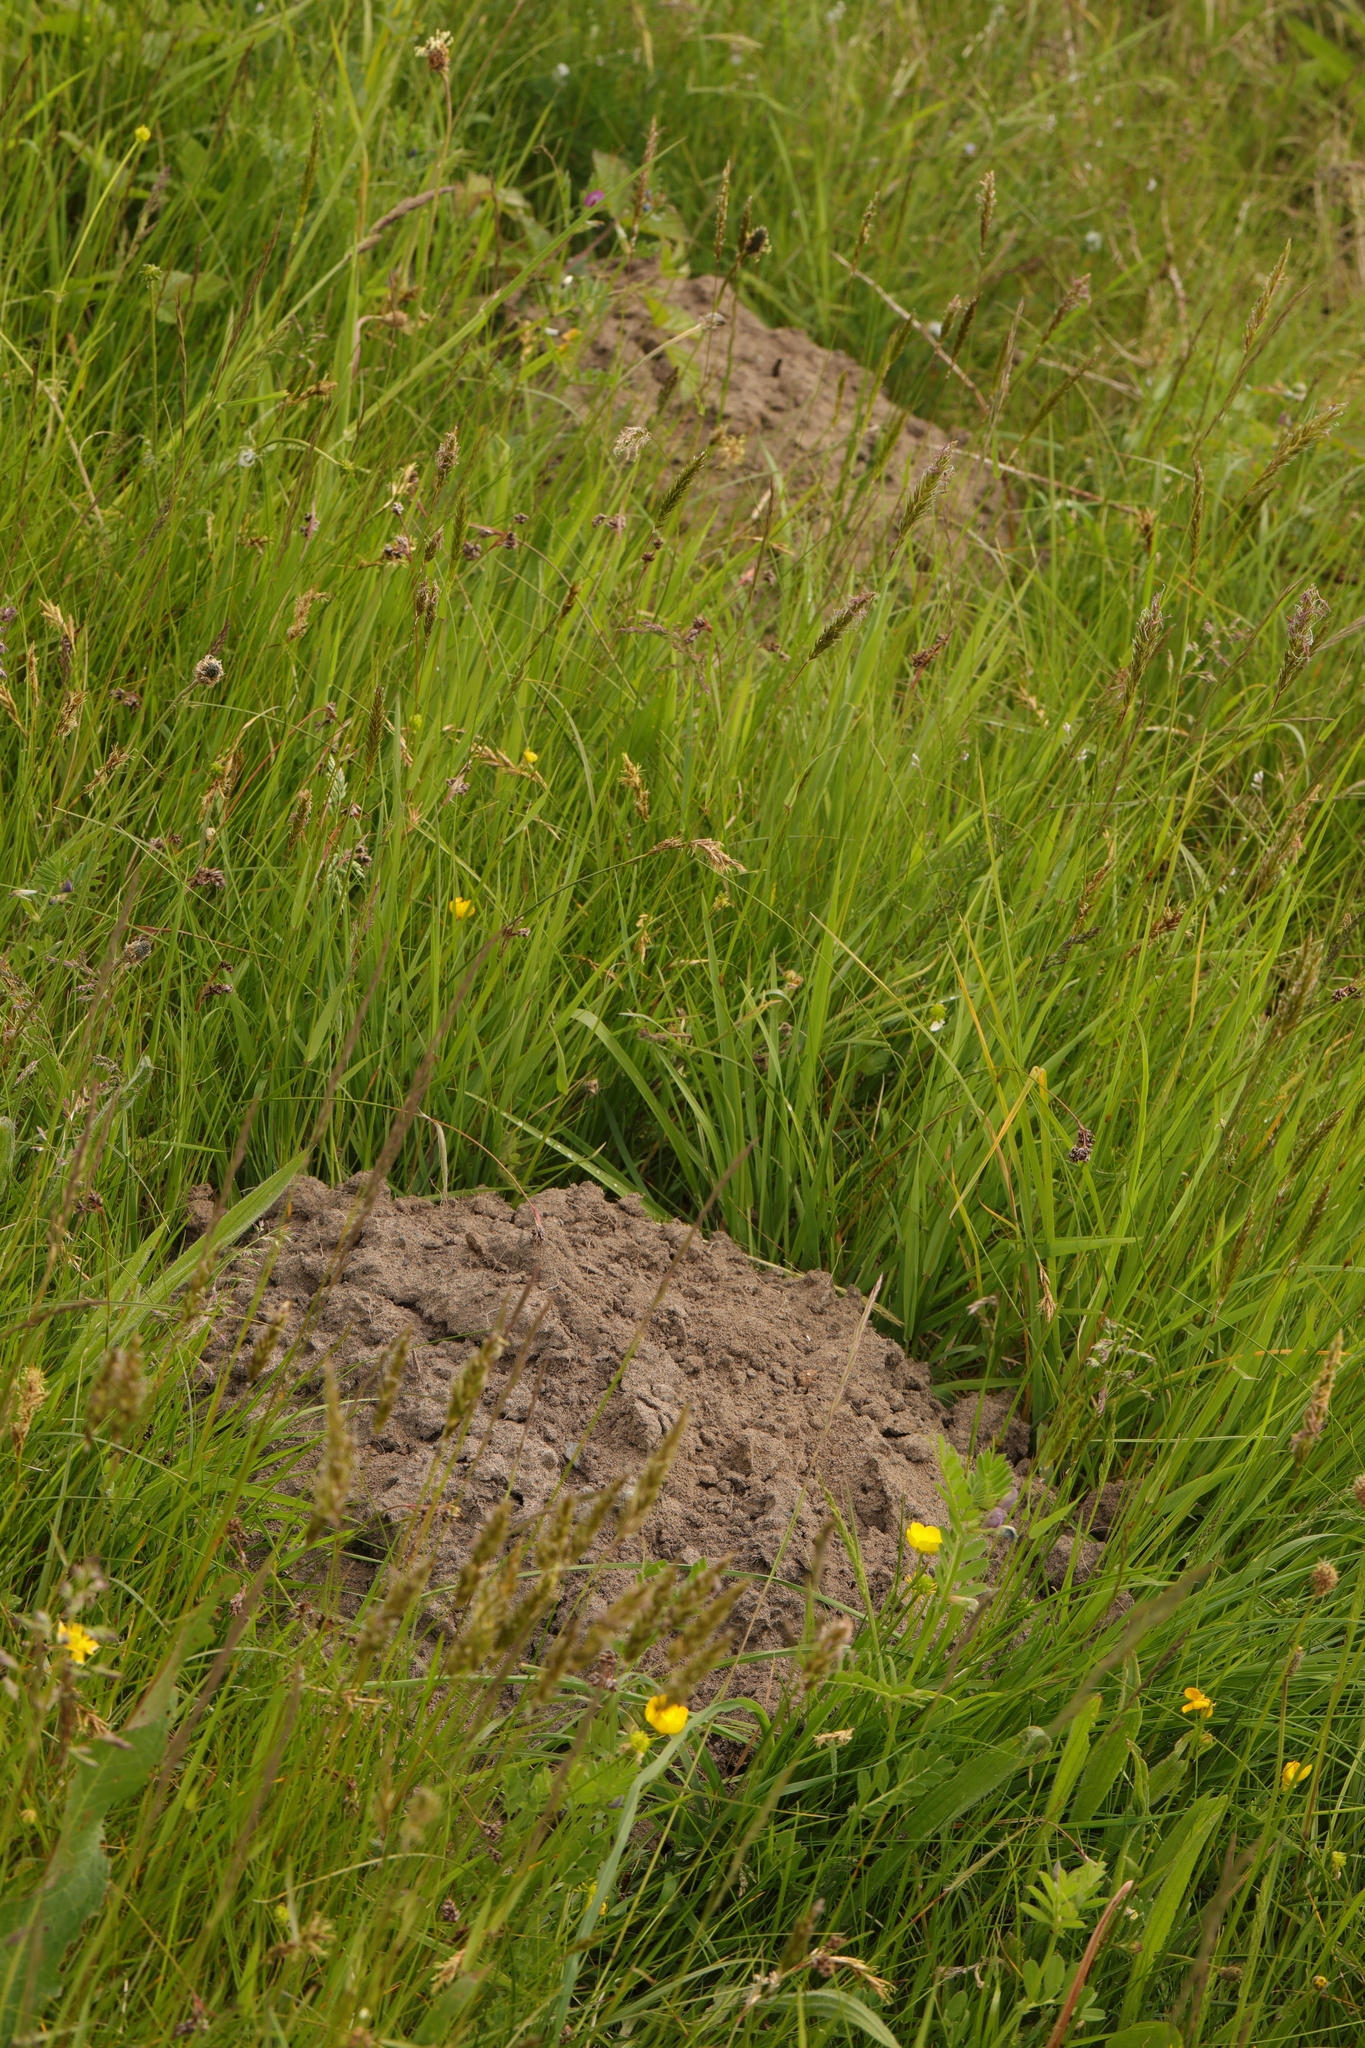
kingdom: Animalia
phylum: Chordata
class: Mammalia
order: Soricomorpha
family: Talpidae
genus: Talpa
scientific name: Talpa europaea
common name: European mole
